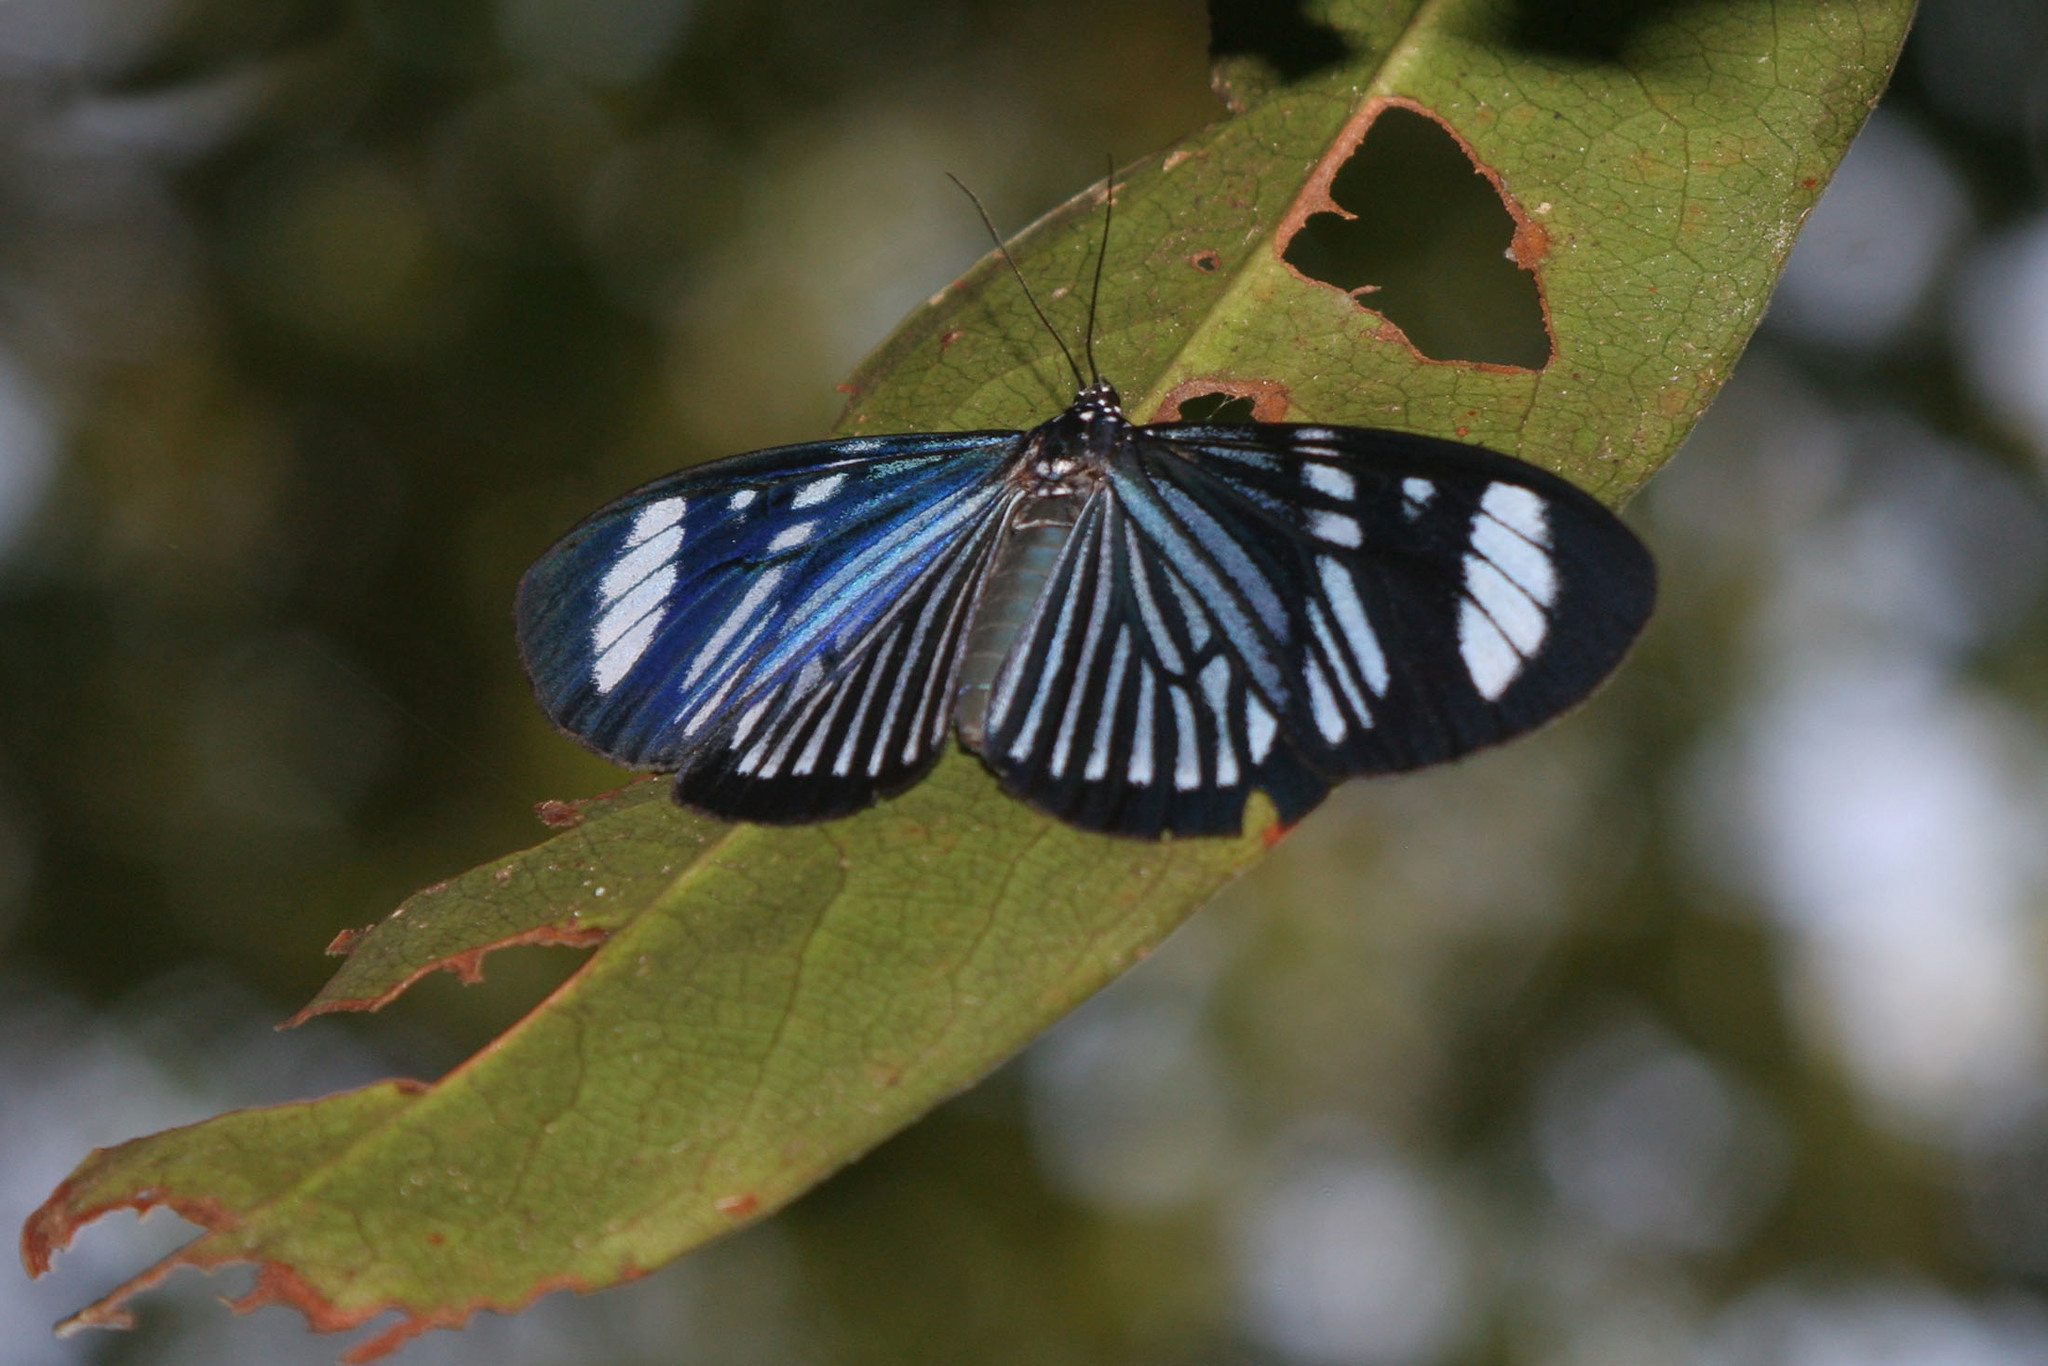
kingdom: Animalia
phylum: Arthropoda
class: Insecta
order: Lepidoptera
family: Erebidae
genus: Hypocrita
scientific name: Hypocrita
